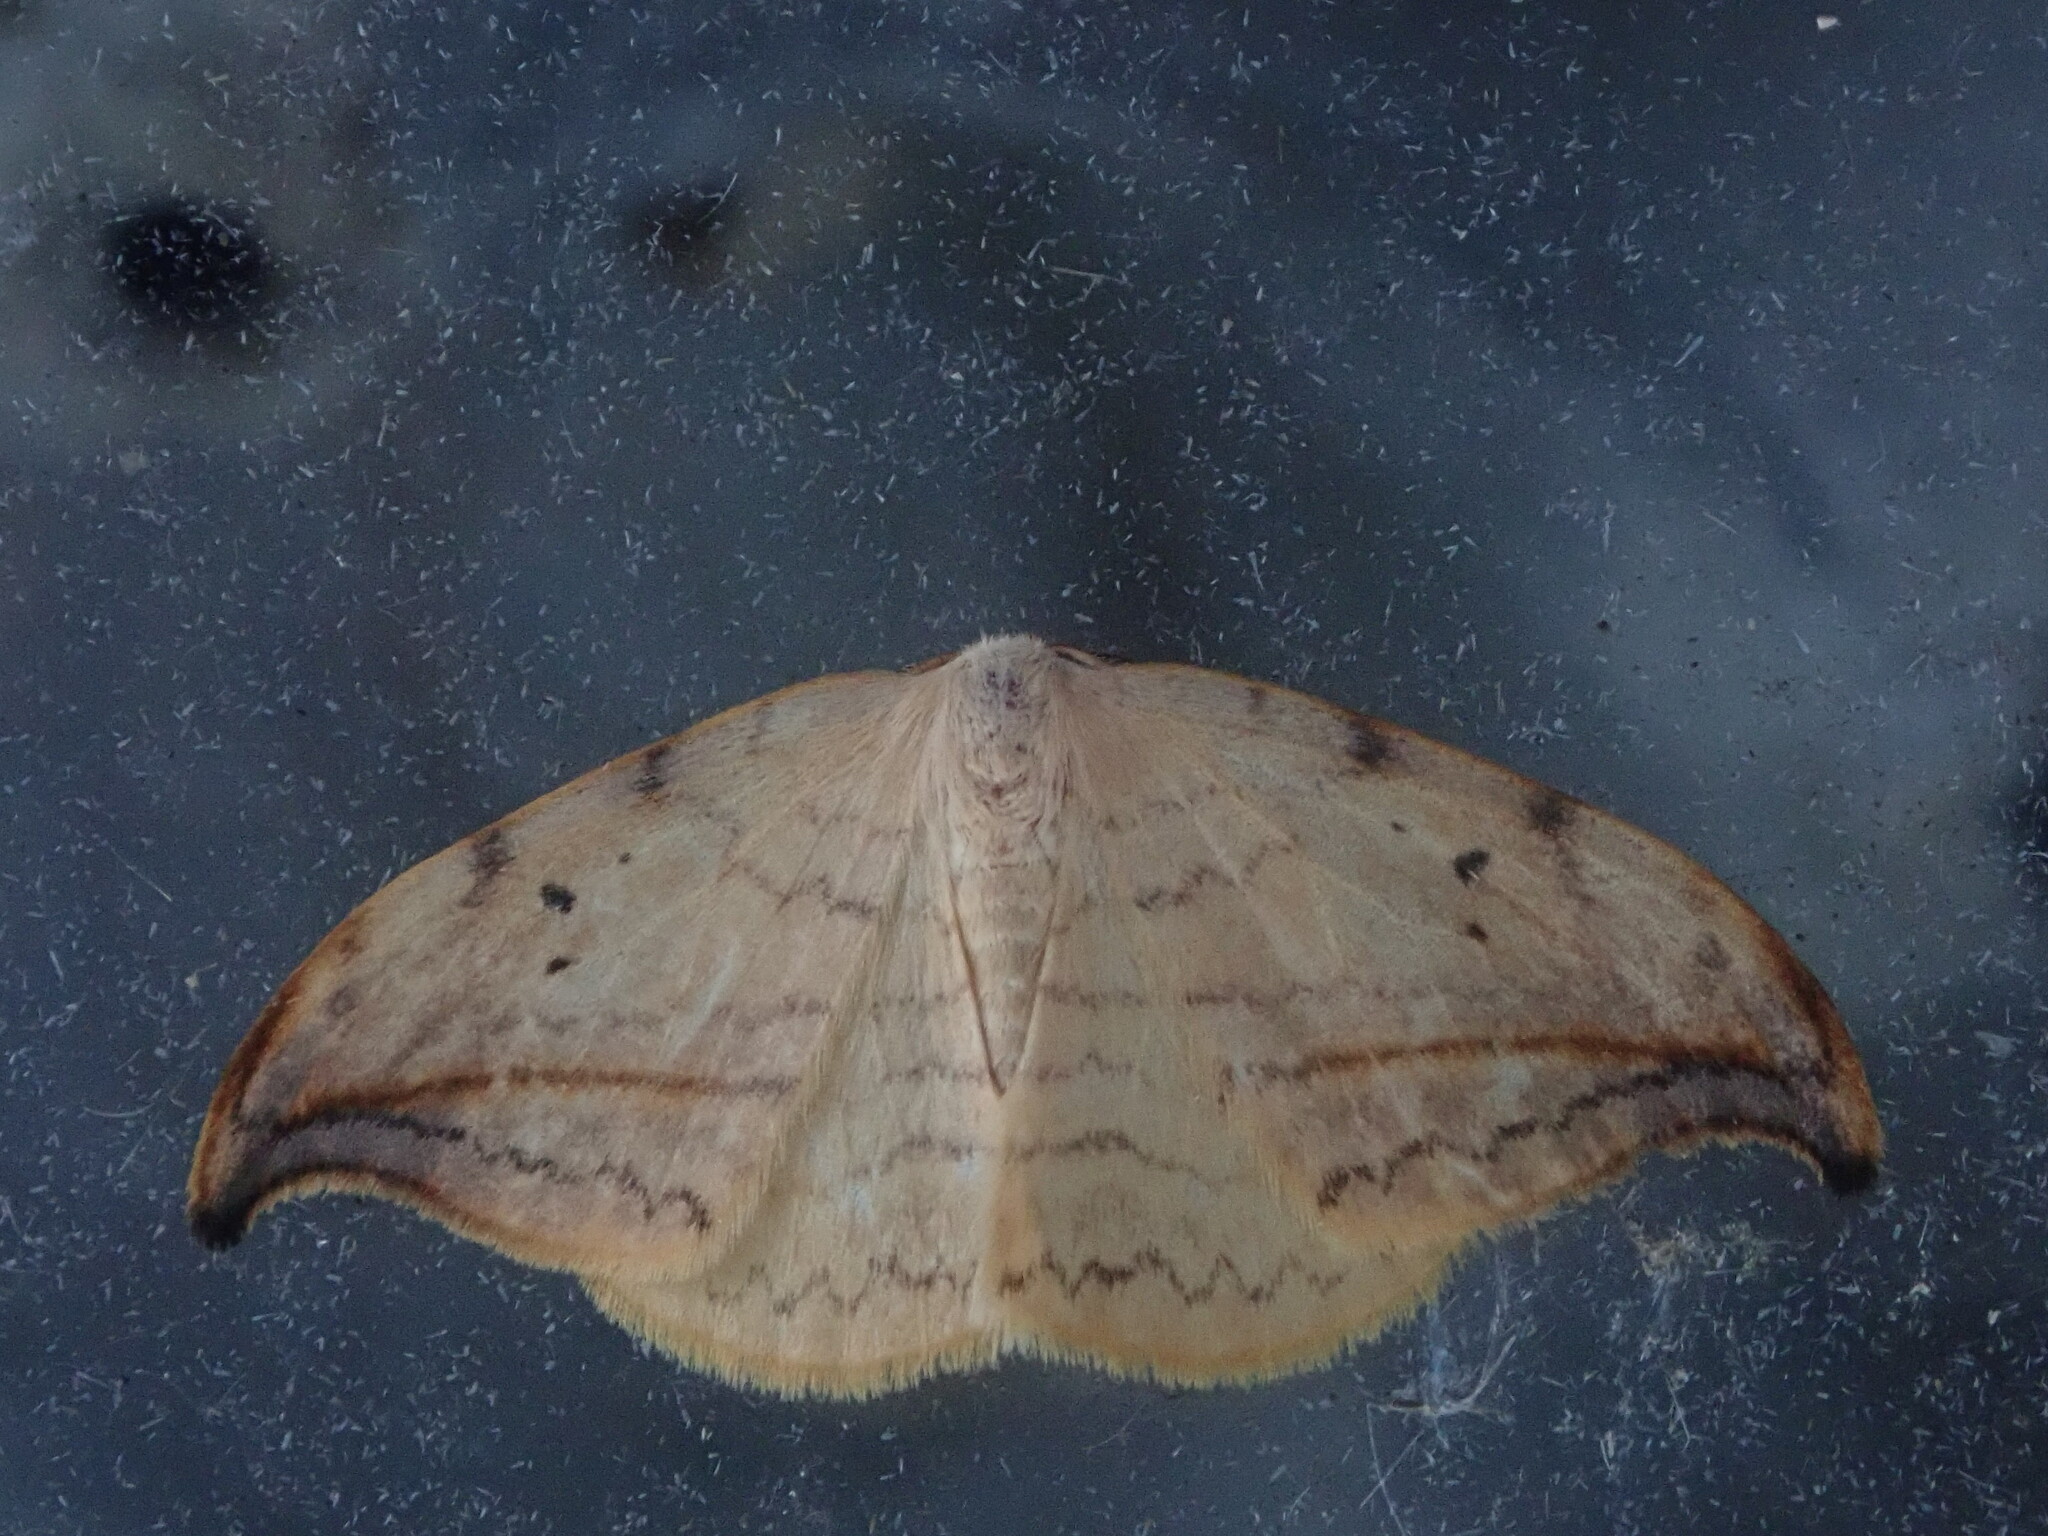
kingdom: Animalia
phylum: Arthropoda
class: Insecta
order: Lepidoptera
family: Drepanidae
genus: Drepana
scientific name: Drepana arcuata
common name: Arched hooktip moth
